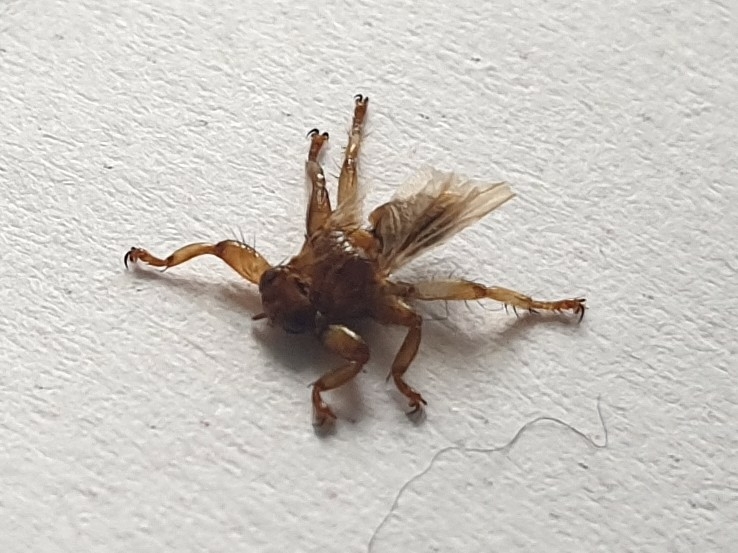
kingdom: Animalia
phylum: Arthropoda
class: Insecta
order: Diptera
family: Hippoboscidae
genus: Lipoptena
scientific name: Lipoptena cervi
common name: Deer ked
